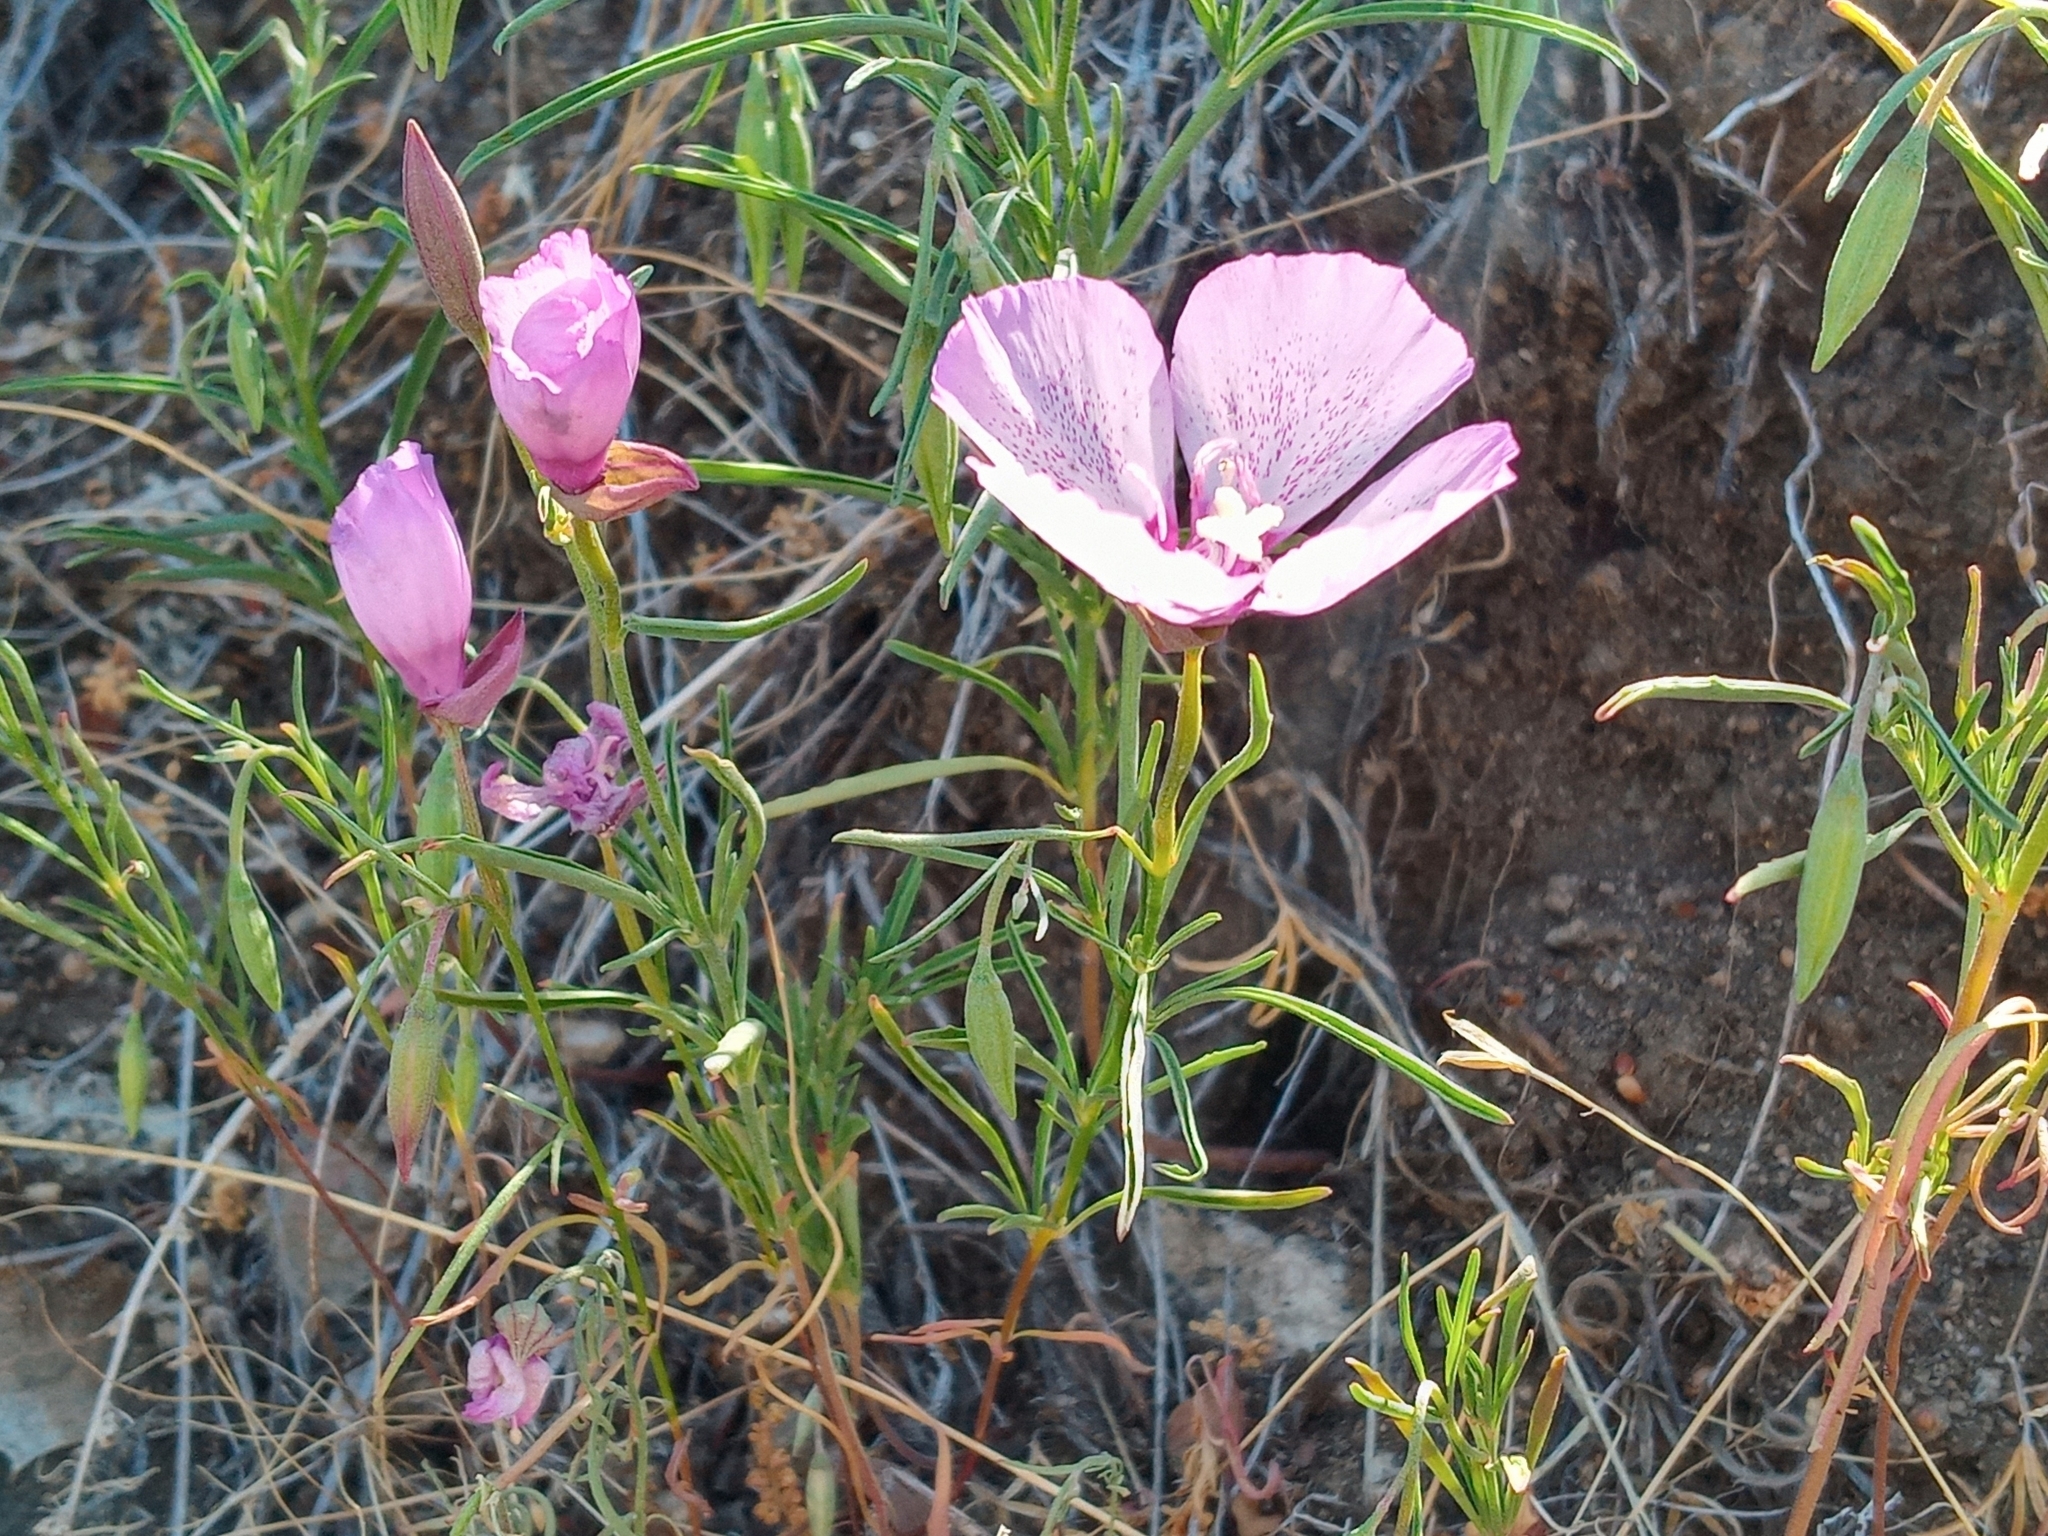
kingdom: Plantae
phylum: Tracheophyta
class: Magnoliopsida
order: Myrtales
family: Onagraceae
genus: Clarkia
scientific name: Clarkia cylindrica
